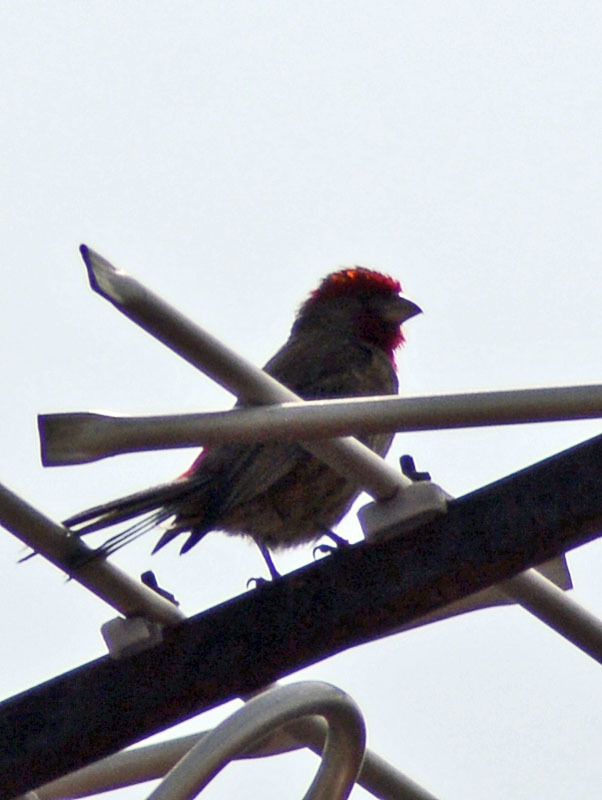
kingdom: Animalia
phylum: Chordata
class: Aves
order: Passeriformes
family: Fringillidae
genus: Haemorhous
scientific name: Haemorhous mexicanus
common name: House finch
